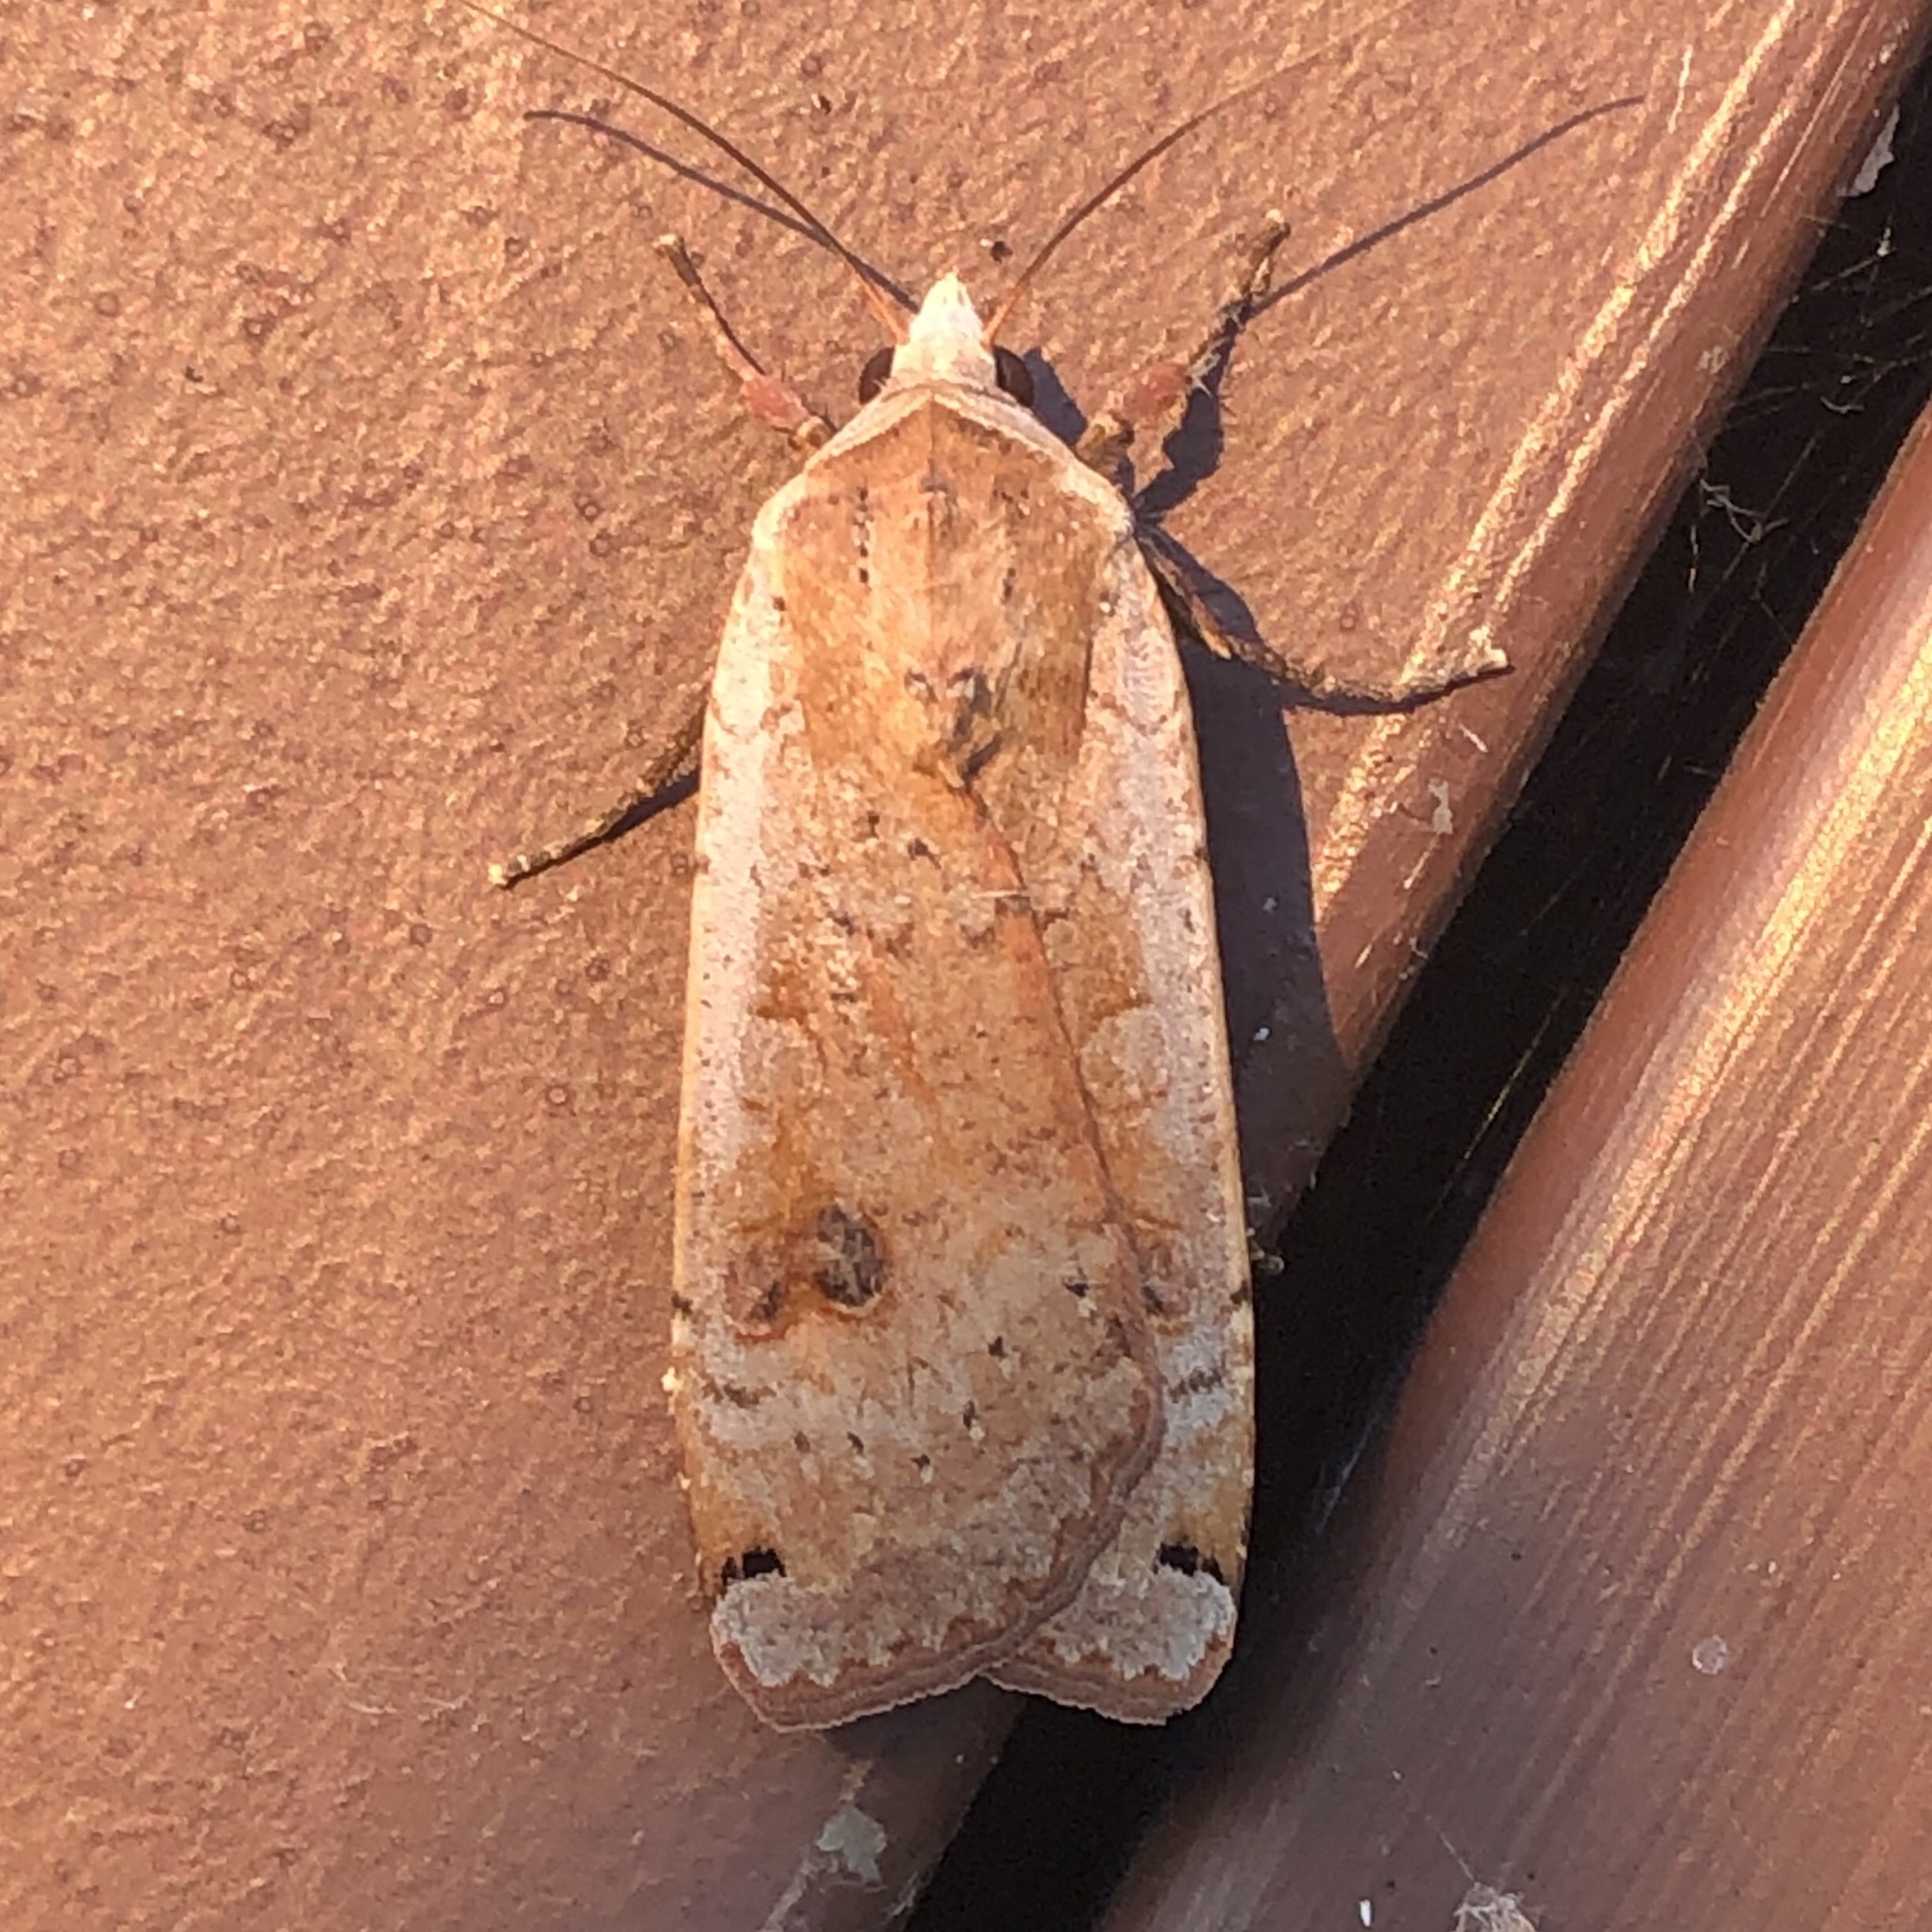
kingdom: Animalia
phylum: Arthropoda
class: Insecta
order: Lepidoptera
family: Noctuidae
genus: Noctua
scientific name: Noctua pronuba
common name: Large yellow underwing
